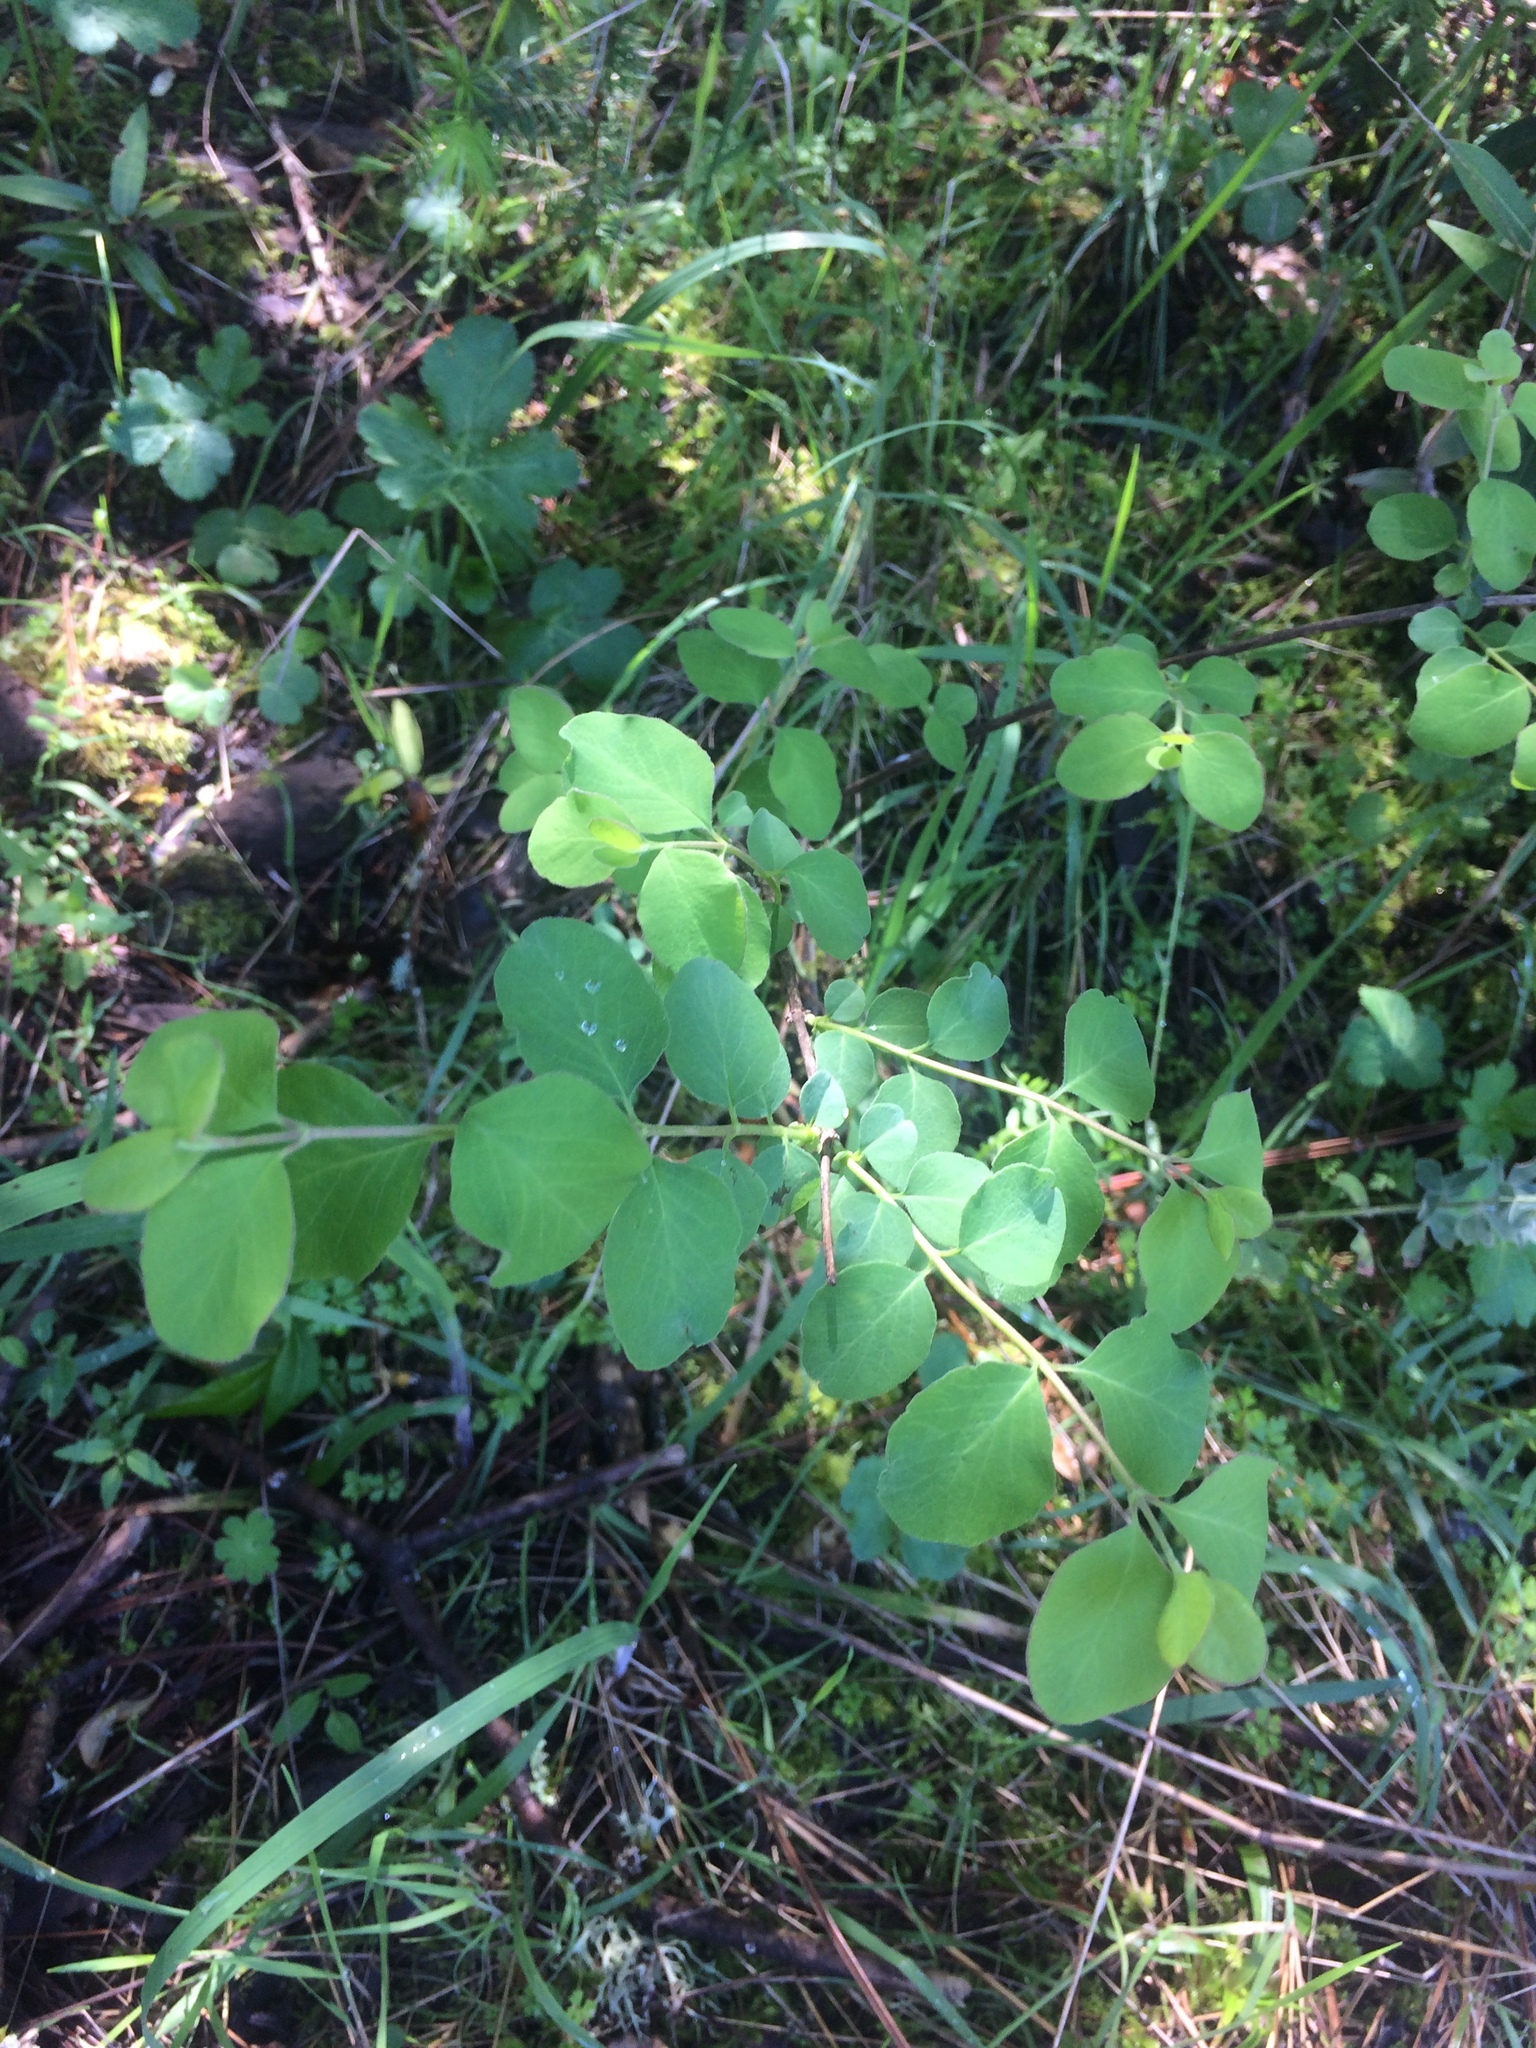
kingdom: Plantae
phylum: Tracheophyta
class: Magnoliopsida
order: Dipsacales
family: Caprifoliaceae
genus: Symphoricarpos
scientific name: Symphoricarpos albus
